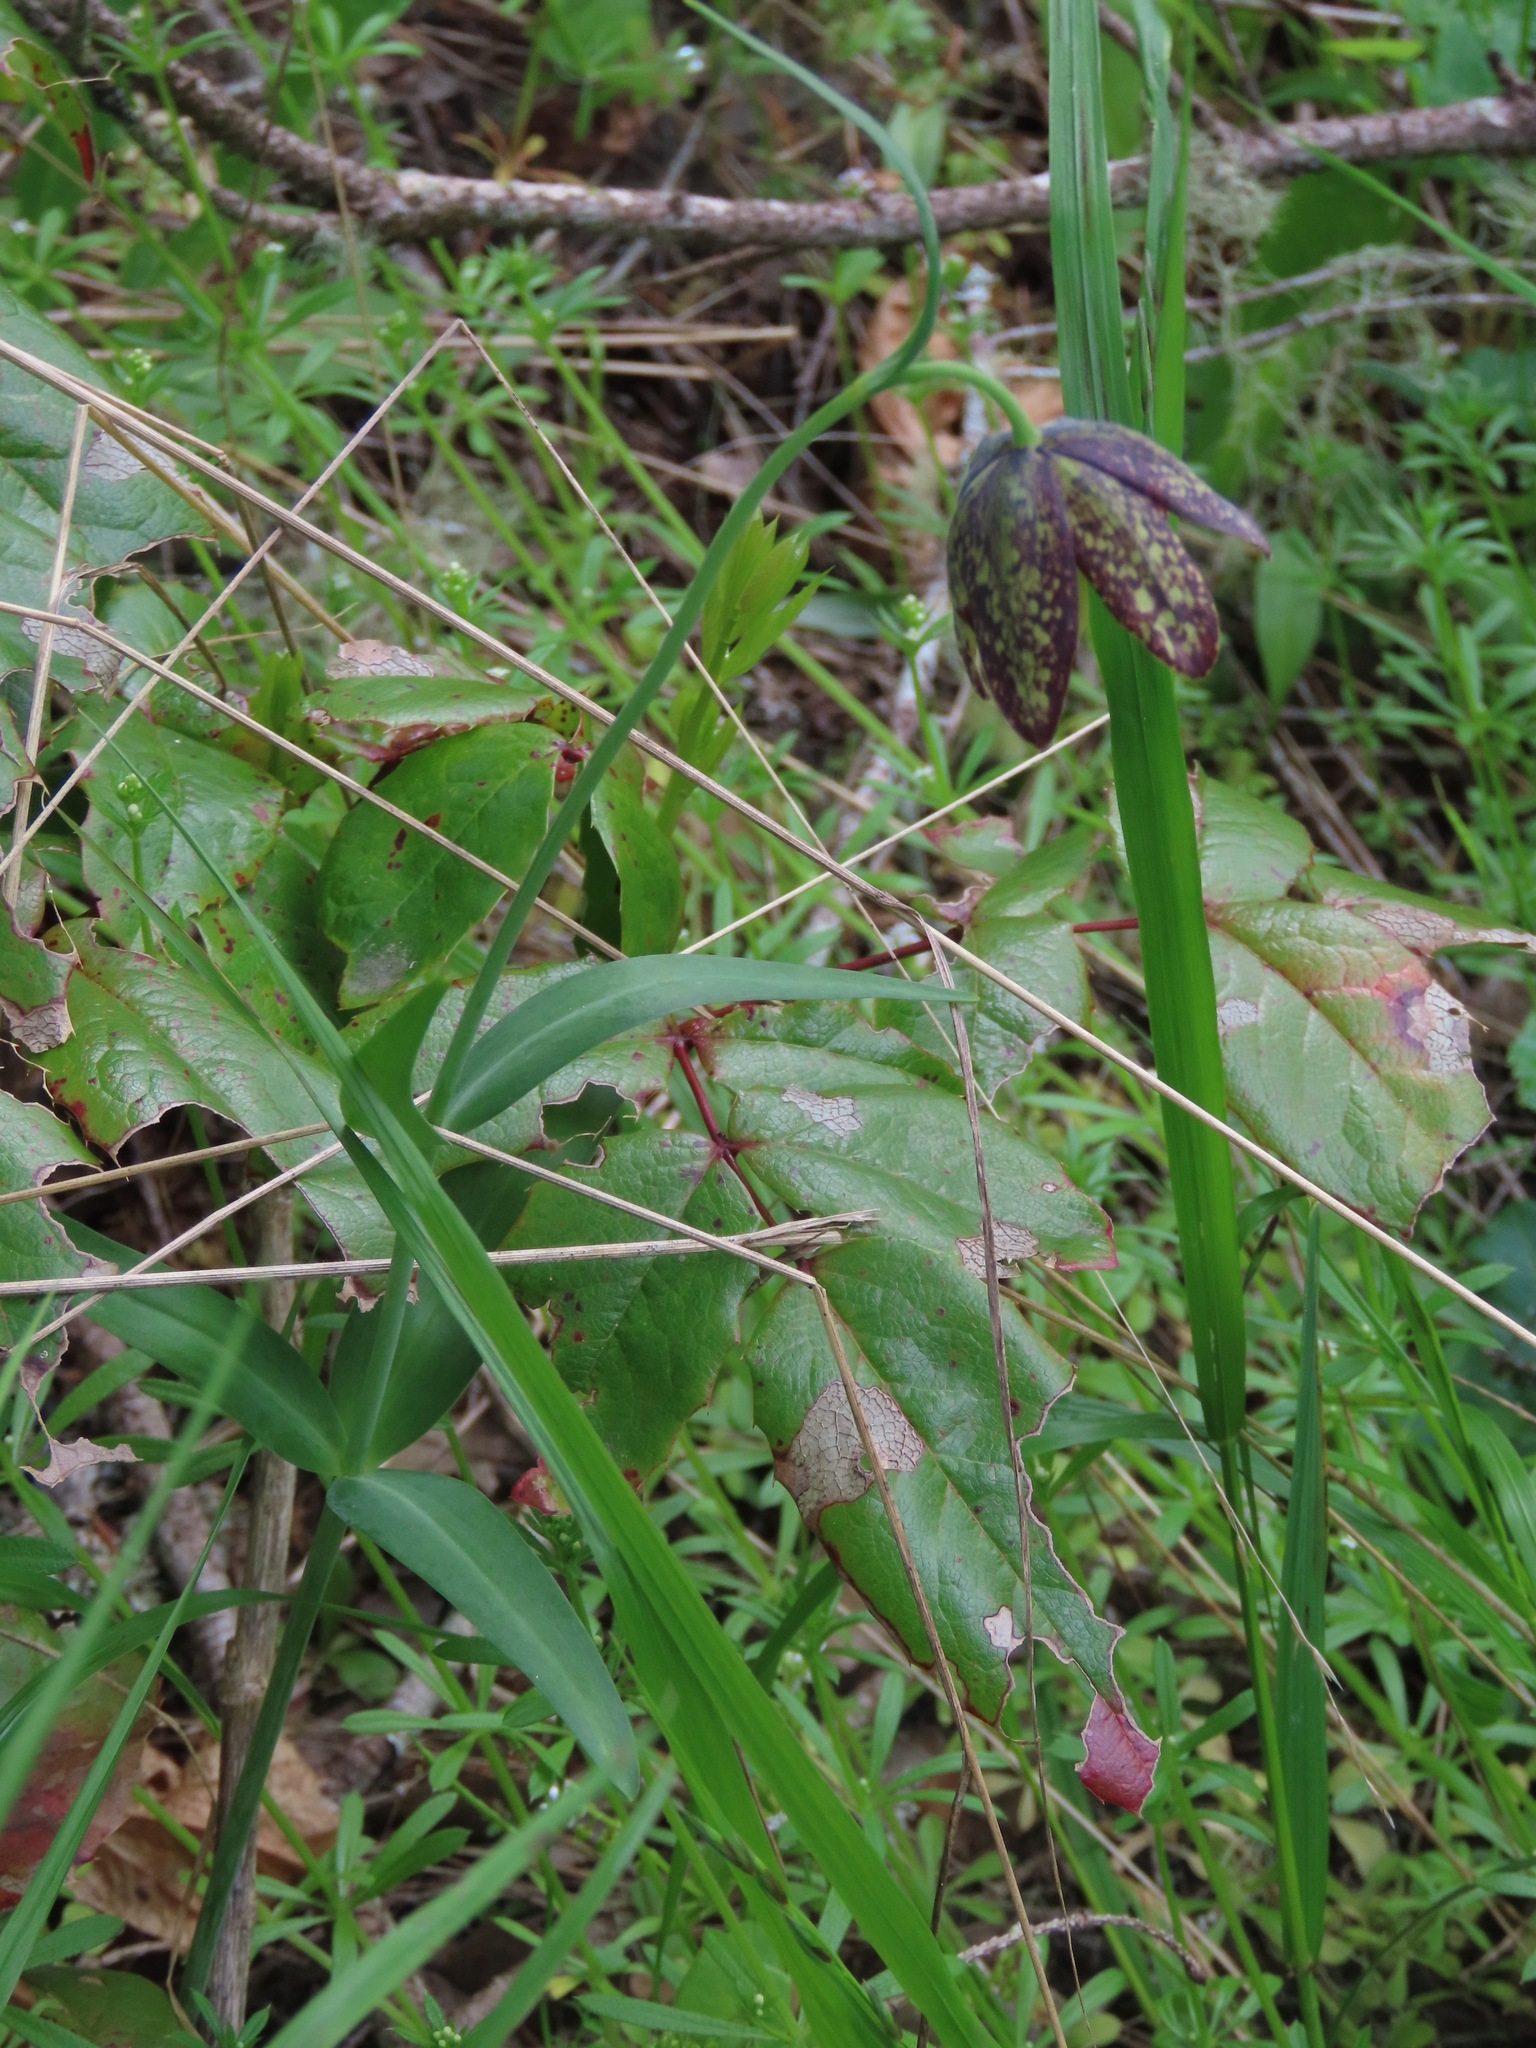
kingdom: Plantae
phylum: Tracheophyta
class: Liliopsida
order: Liliales
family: Liliaceae
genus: Fritillaria
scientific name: Fritillaria affinis
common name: Ojai fritillary
